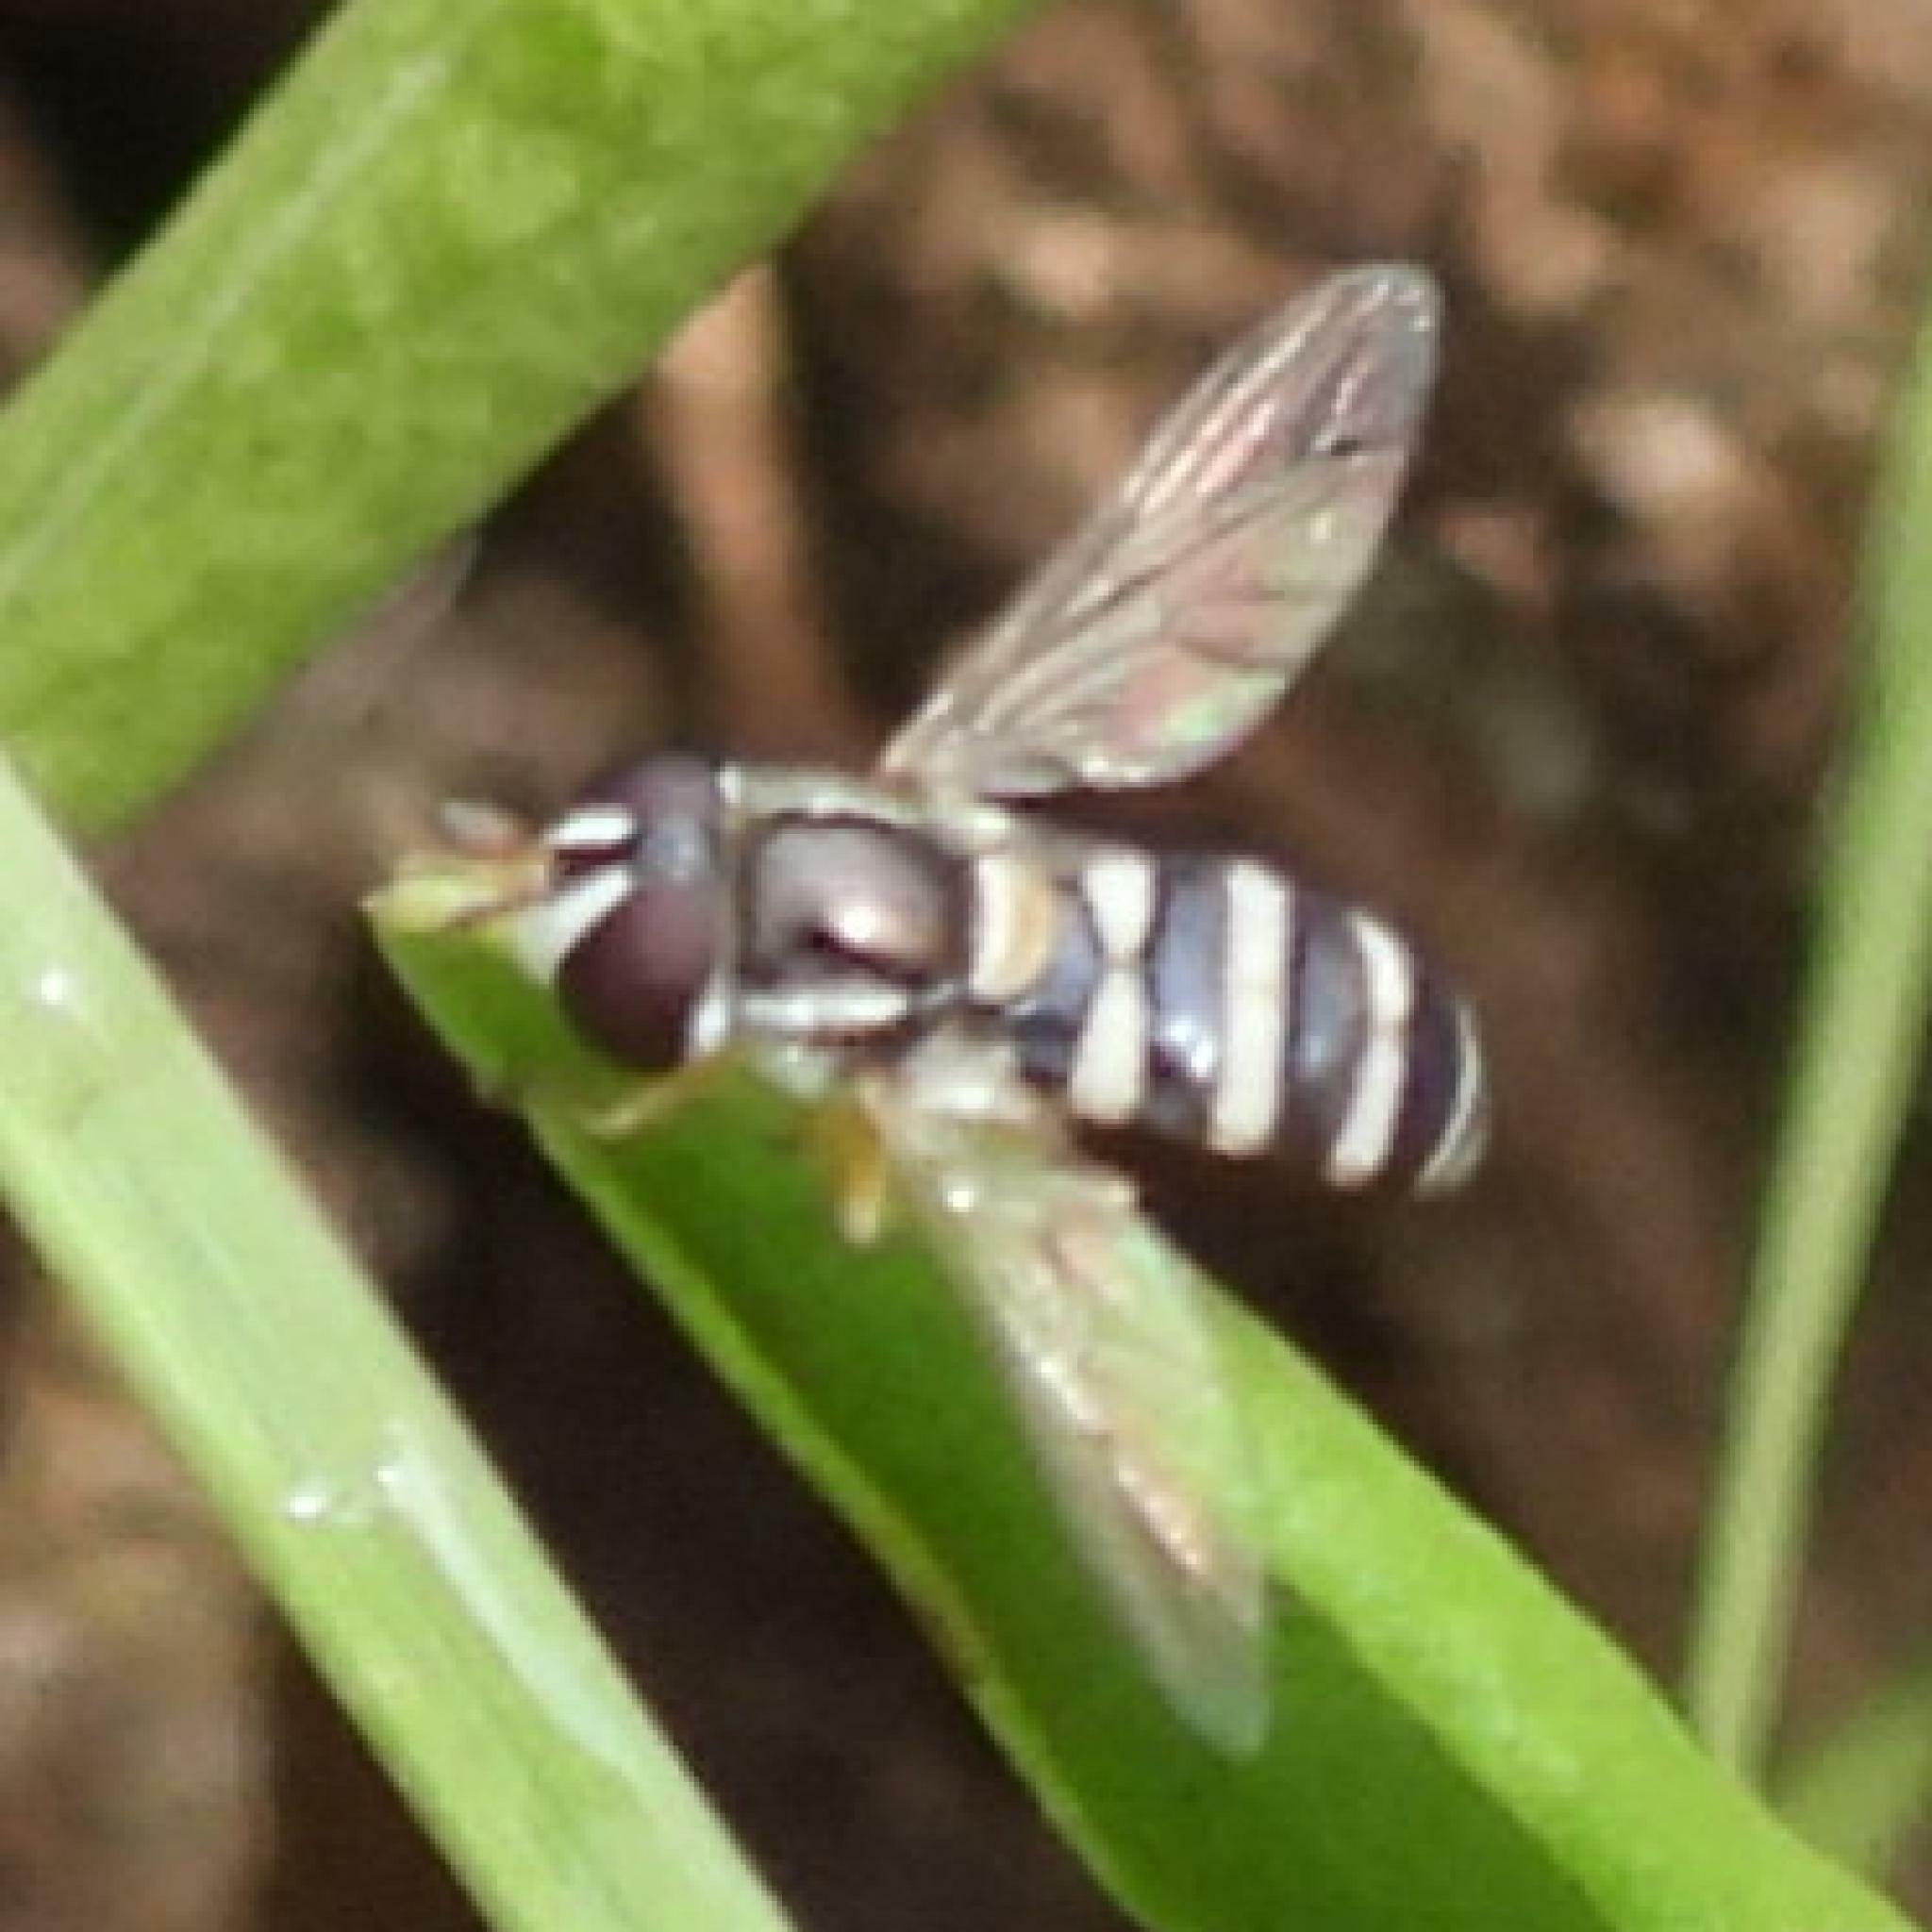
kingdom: Animalia
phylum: Arthropoda
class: Insecta
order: Diptera
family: Syrphidae
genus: Ischiodon
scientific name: Ischiodon aegyptius
